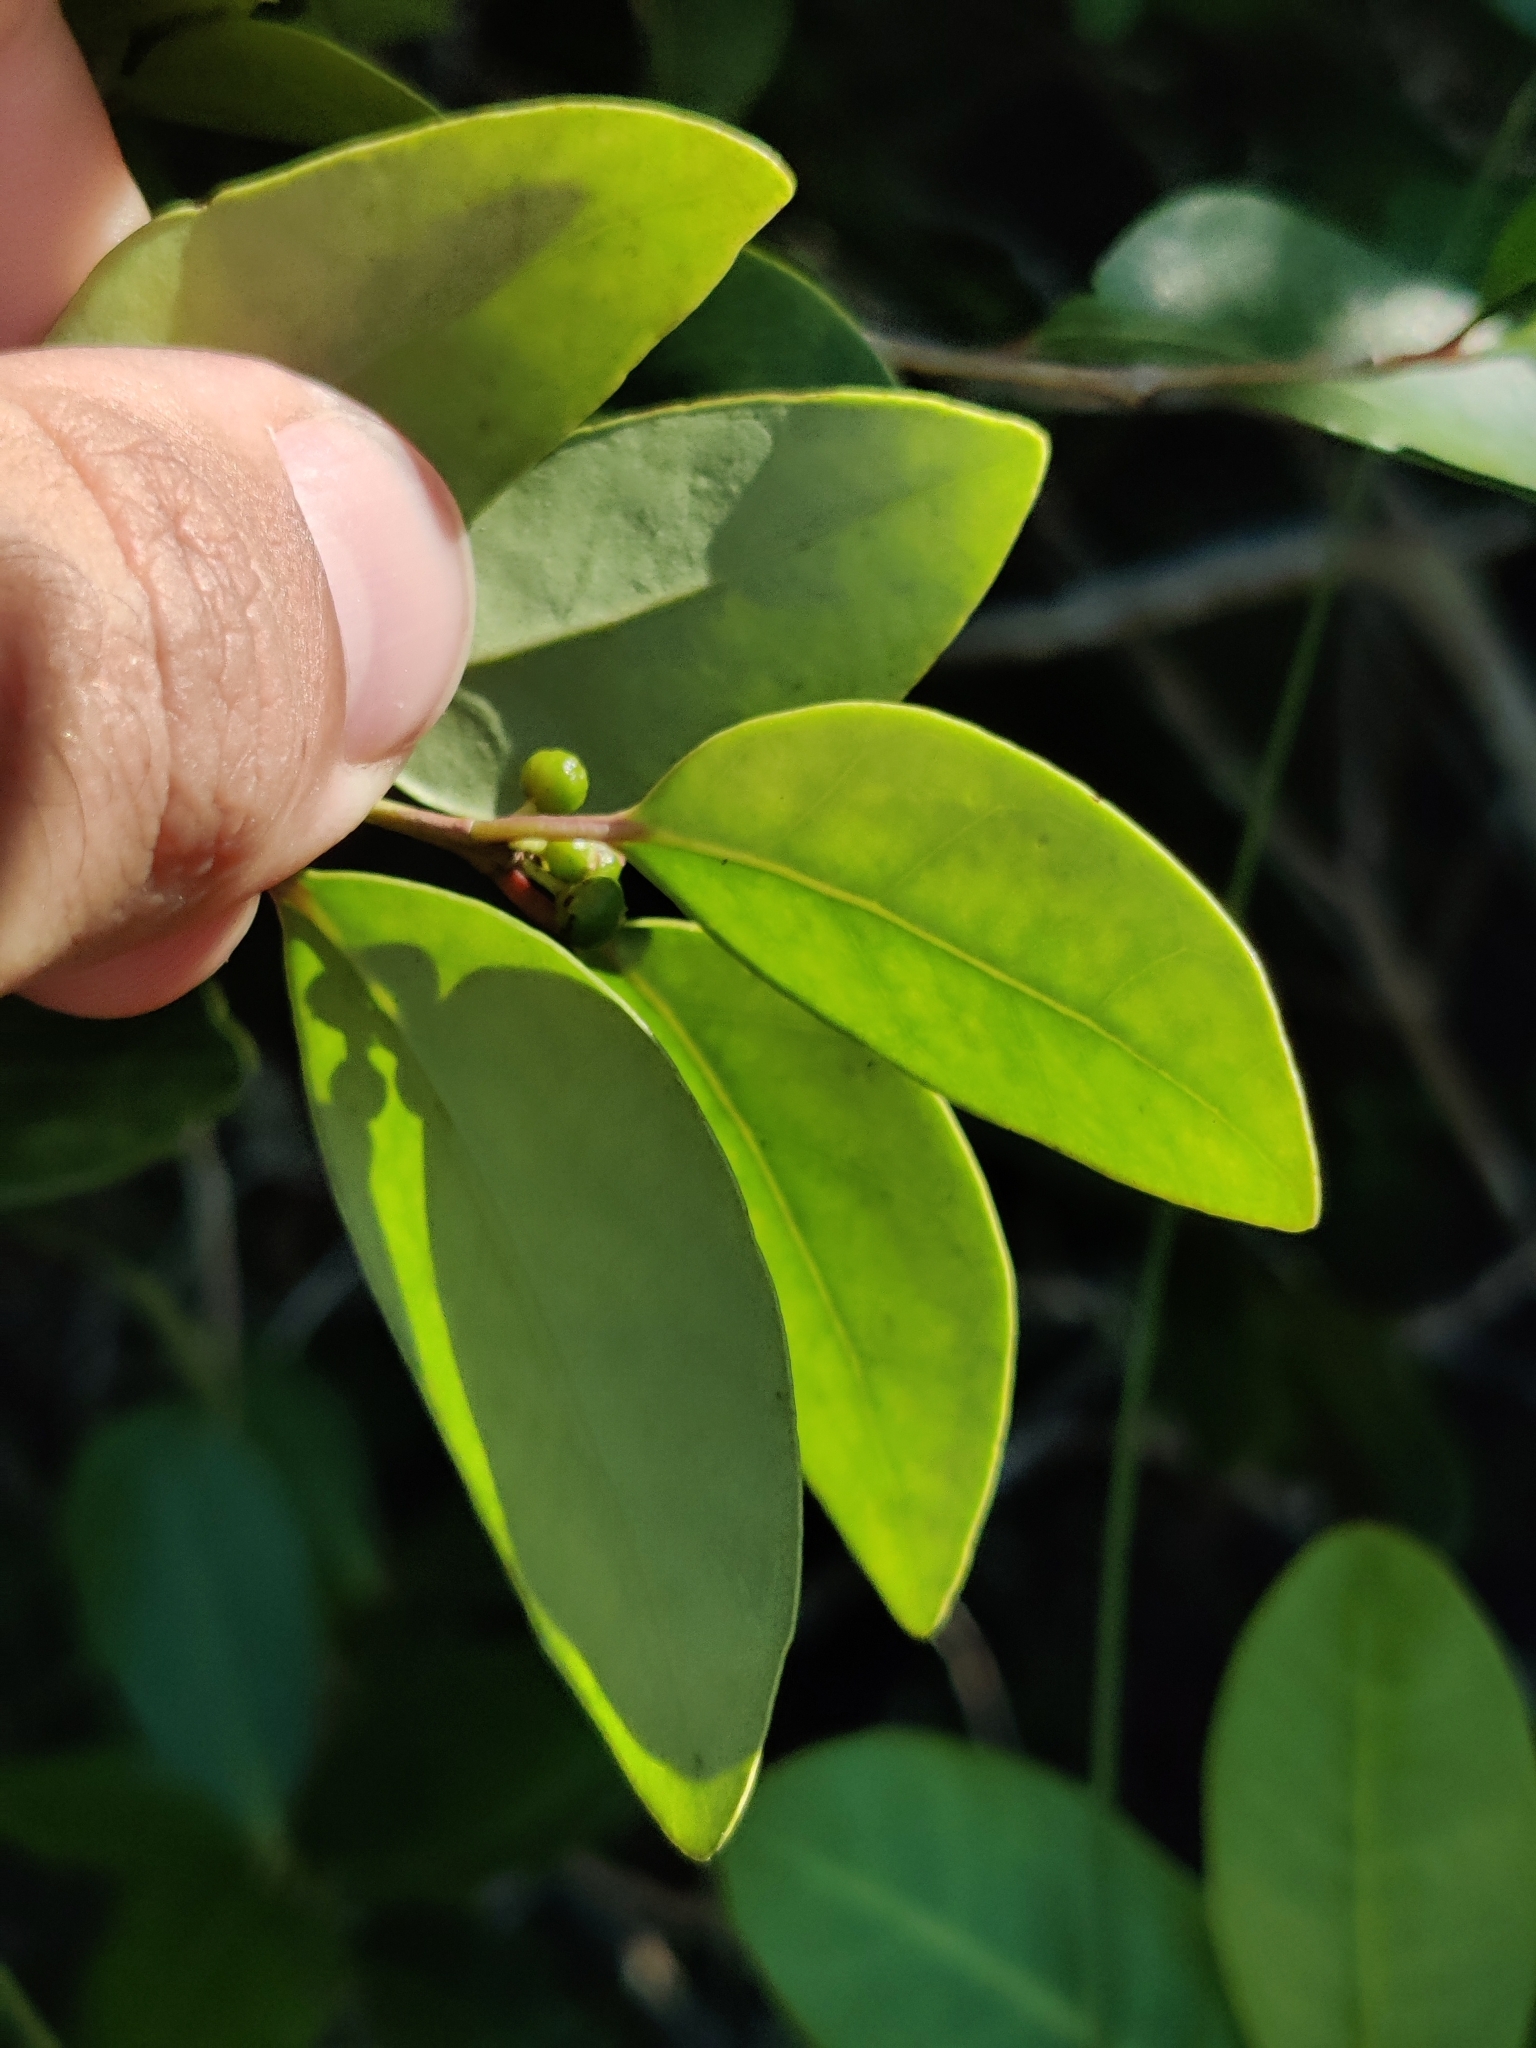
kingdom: Plantae
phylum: Tracheophyta
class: Magnoliopsida
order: Myrtales
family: Myrtaceae
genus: Eugenia
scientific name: Eugenia axillaris
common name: Choaky berry
